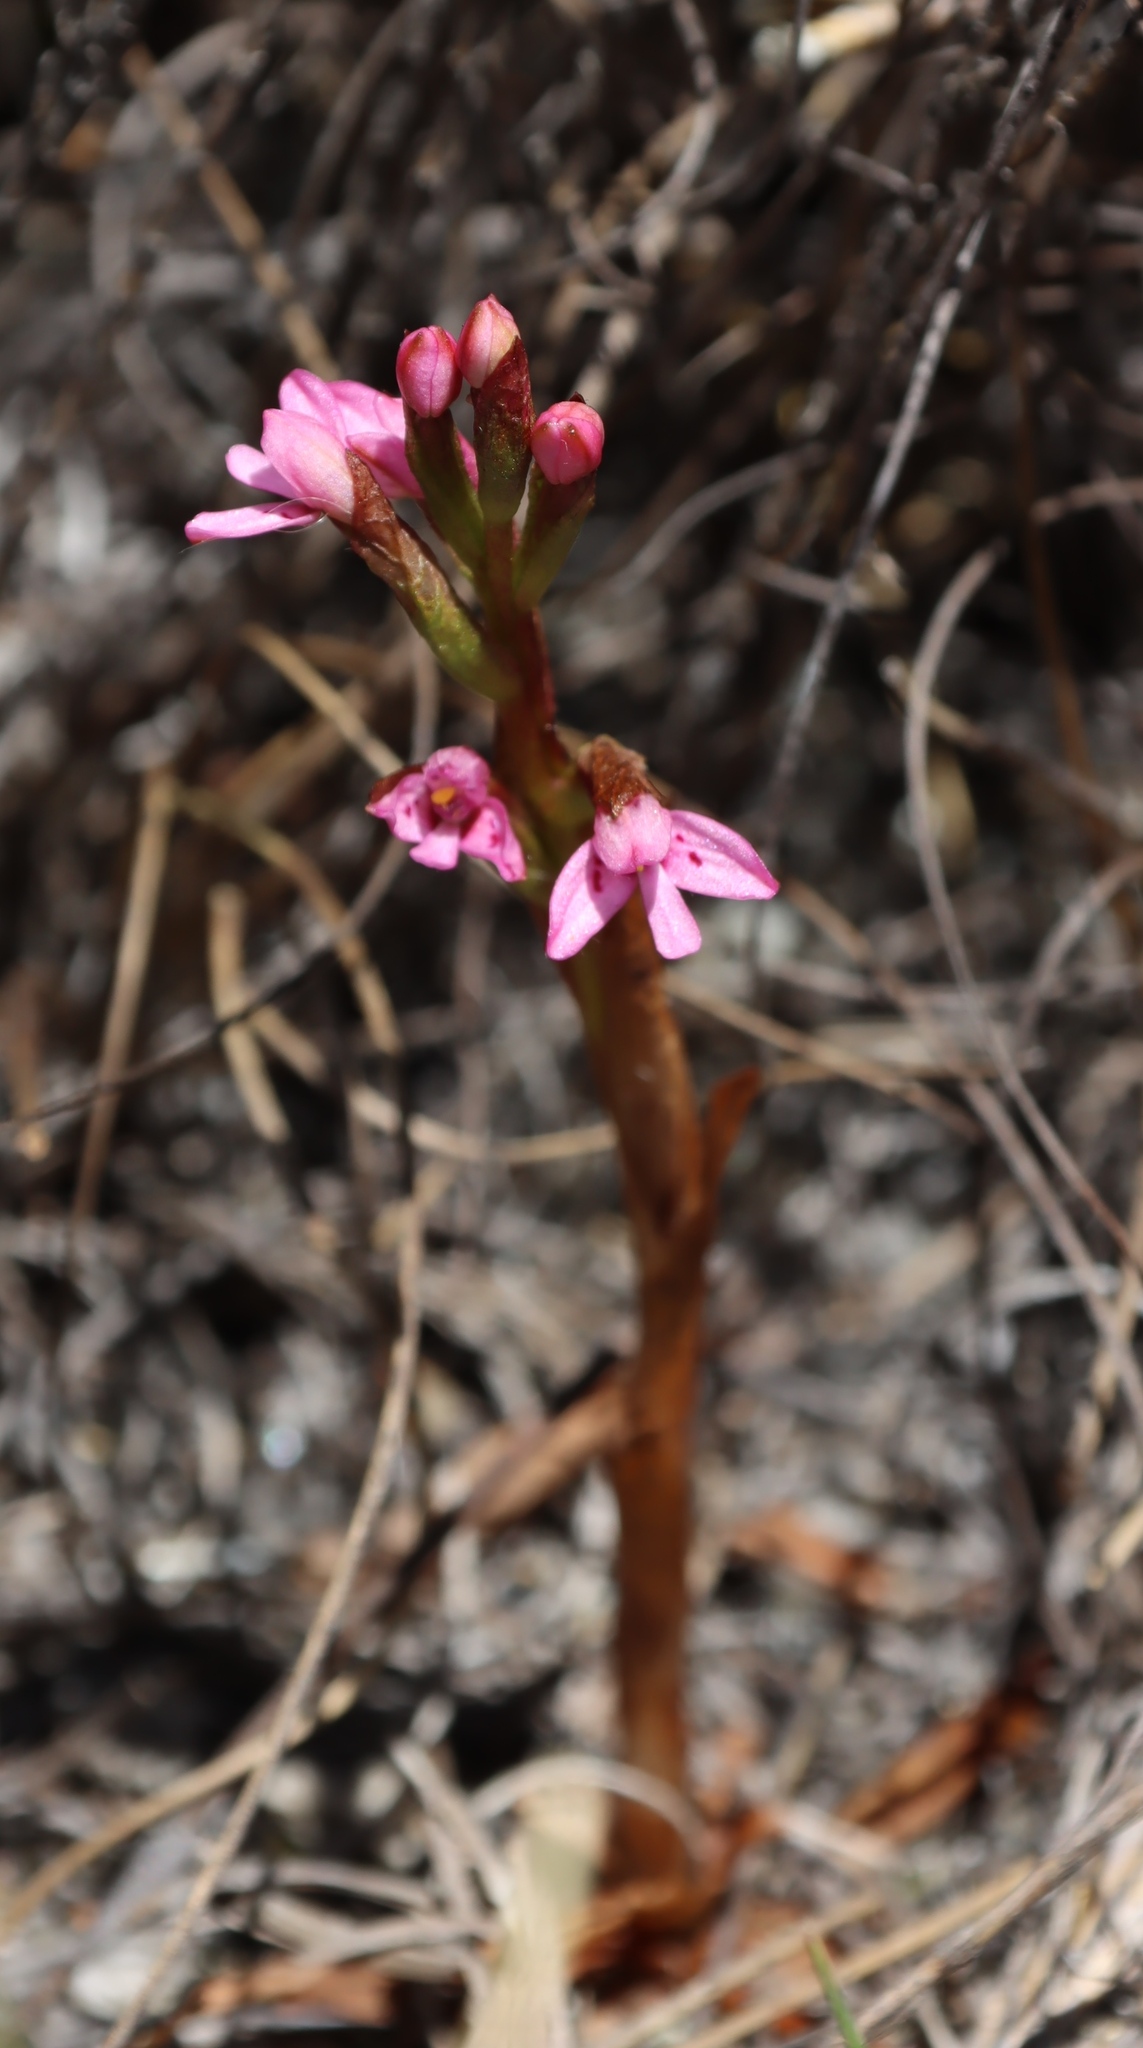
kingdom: Plantae
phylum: Tracheophyta
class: Liliopsida
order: Asparagales
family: Orchidaceae
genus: Disa
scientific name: Disa vaginata
